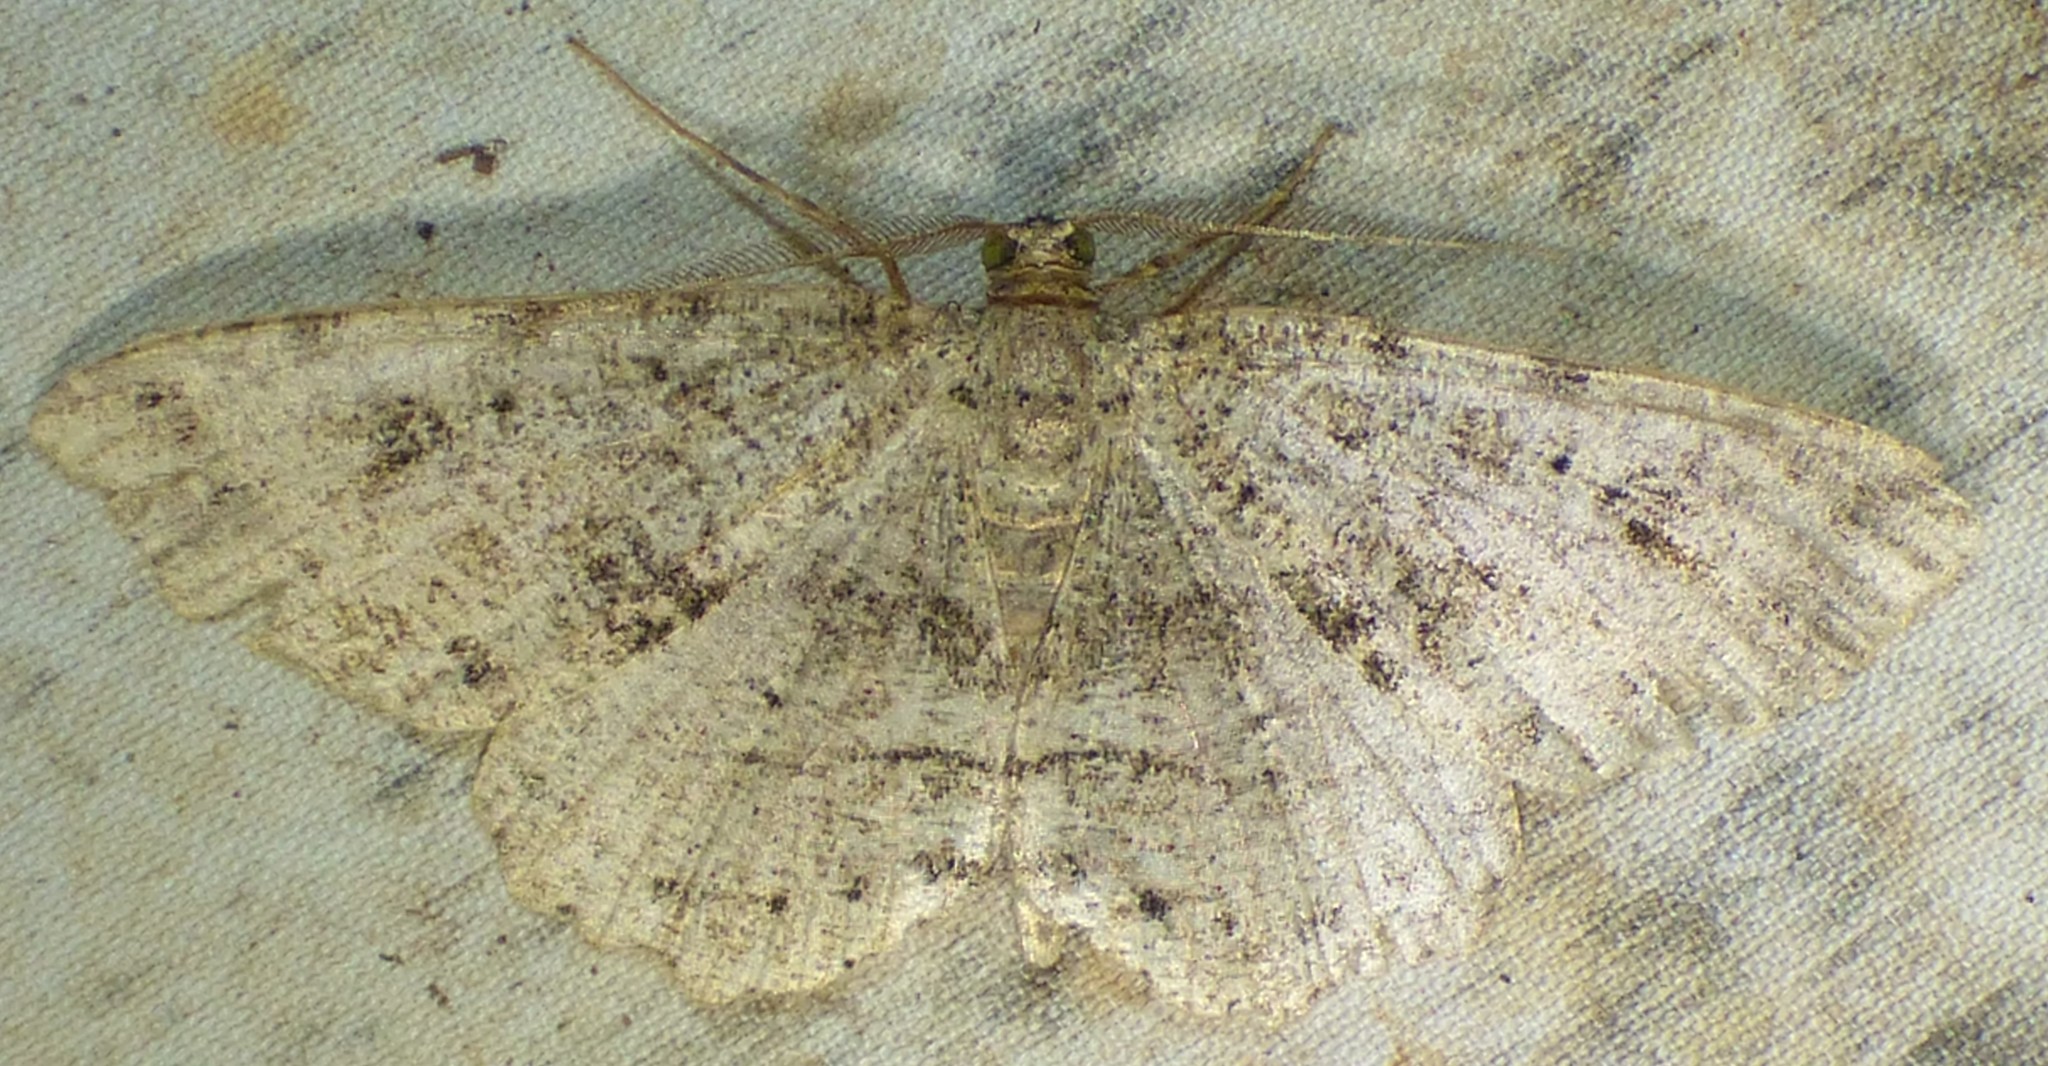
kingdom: Animalia
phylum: Arthropoda
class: Insecta
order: Lepidoptera
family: Geometridae
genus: Melanolophia
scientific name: Melanolophia canadaria
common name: Canadian melanolophia
